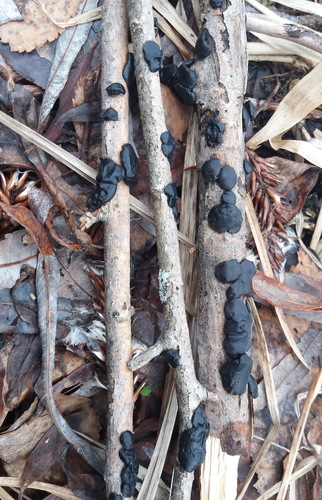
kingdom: Fungi
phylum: Basidiomycota
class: Agaricomycetes
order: Auriculariales
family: Auriculariaceae
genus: Exidia
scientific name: Exidia glandulosa
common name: Witches' butter
